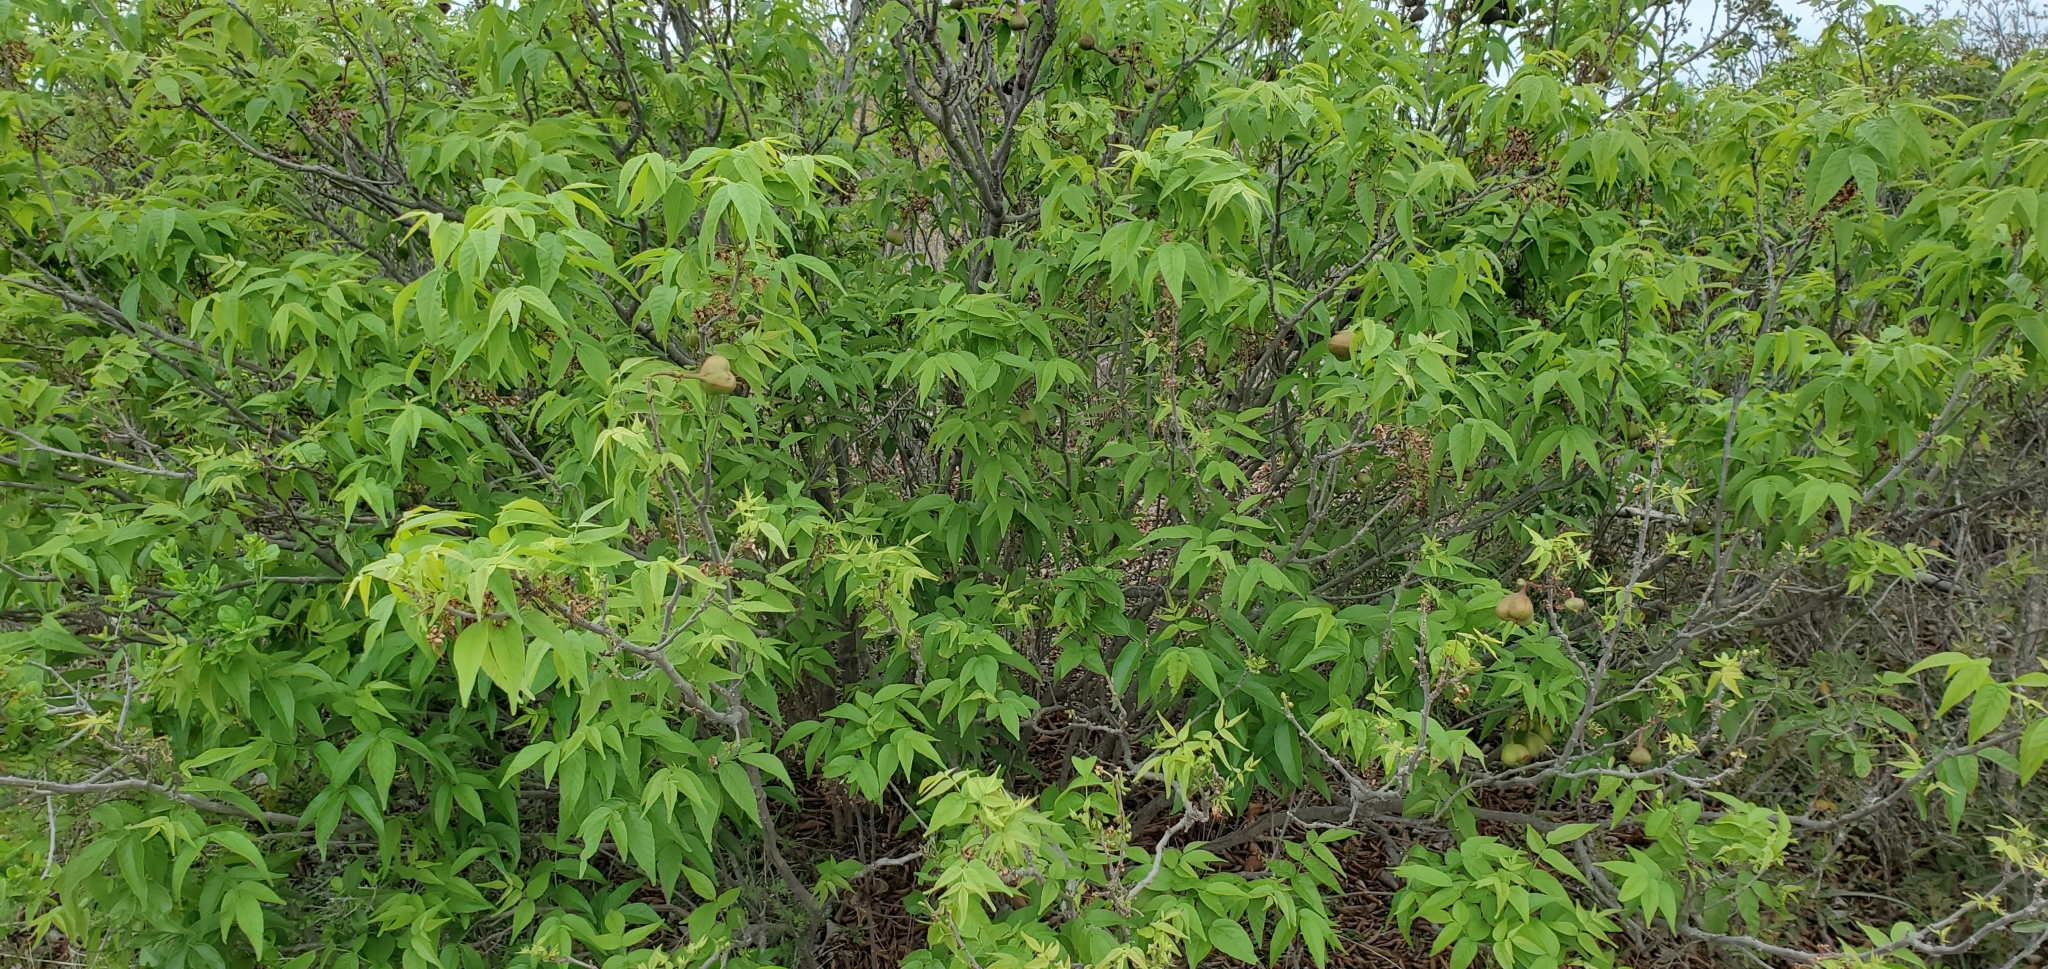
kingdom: Plantae
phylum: Tracheophyta
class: Magnoliopsida
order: Sapindales
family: Sapindaceae
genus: Ungnadia
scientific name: Ungnadia speciosa
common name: Texas-buckeye
